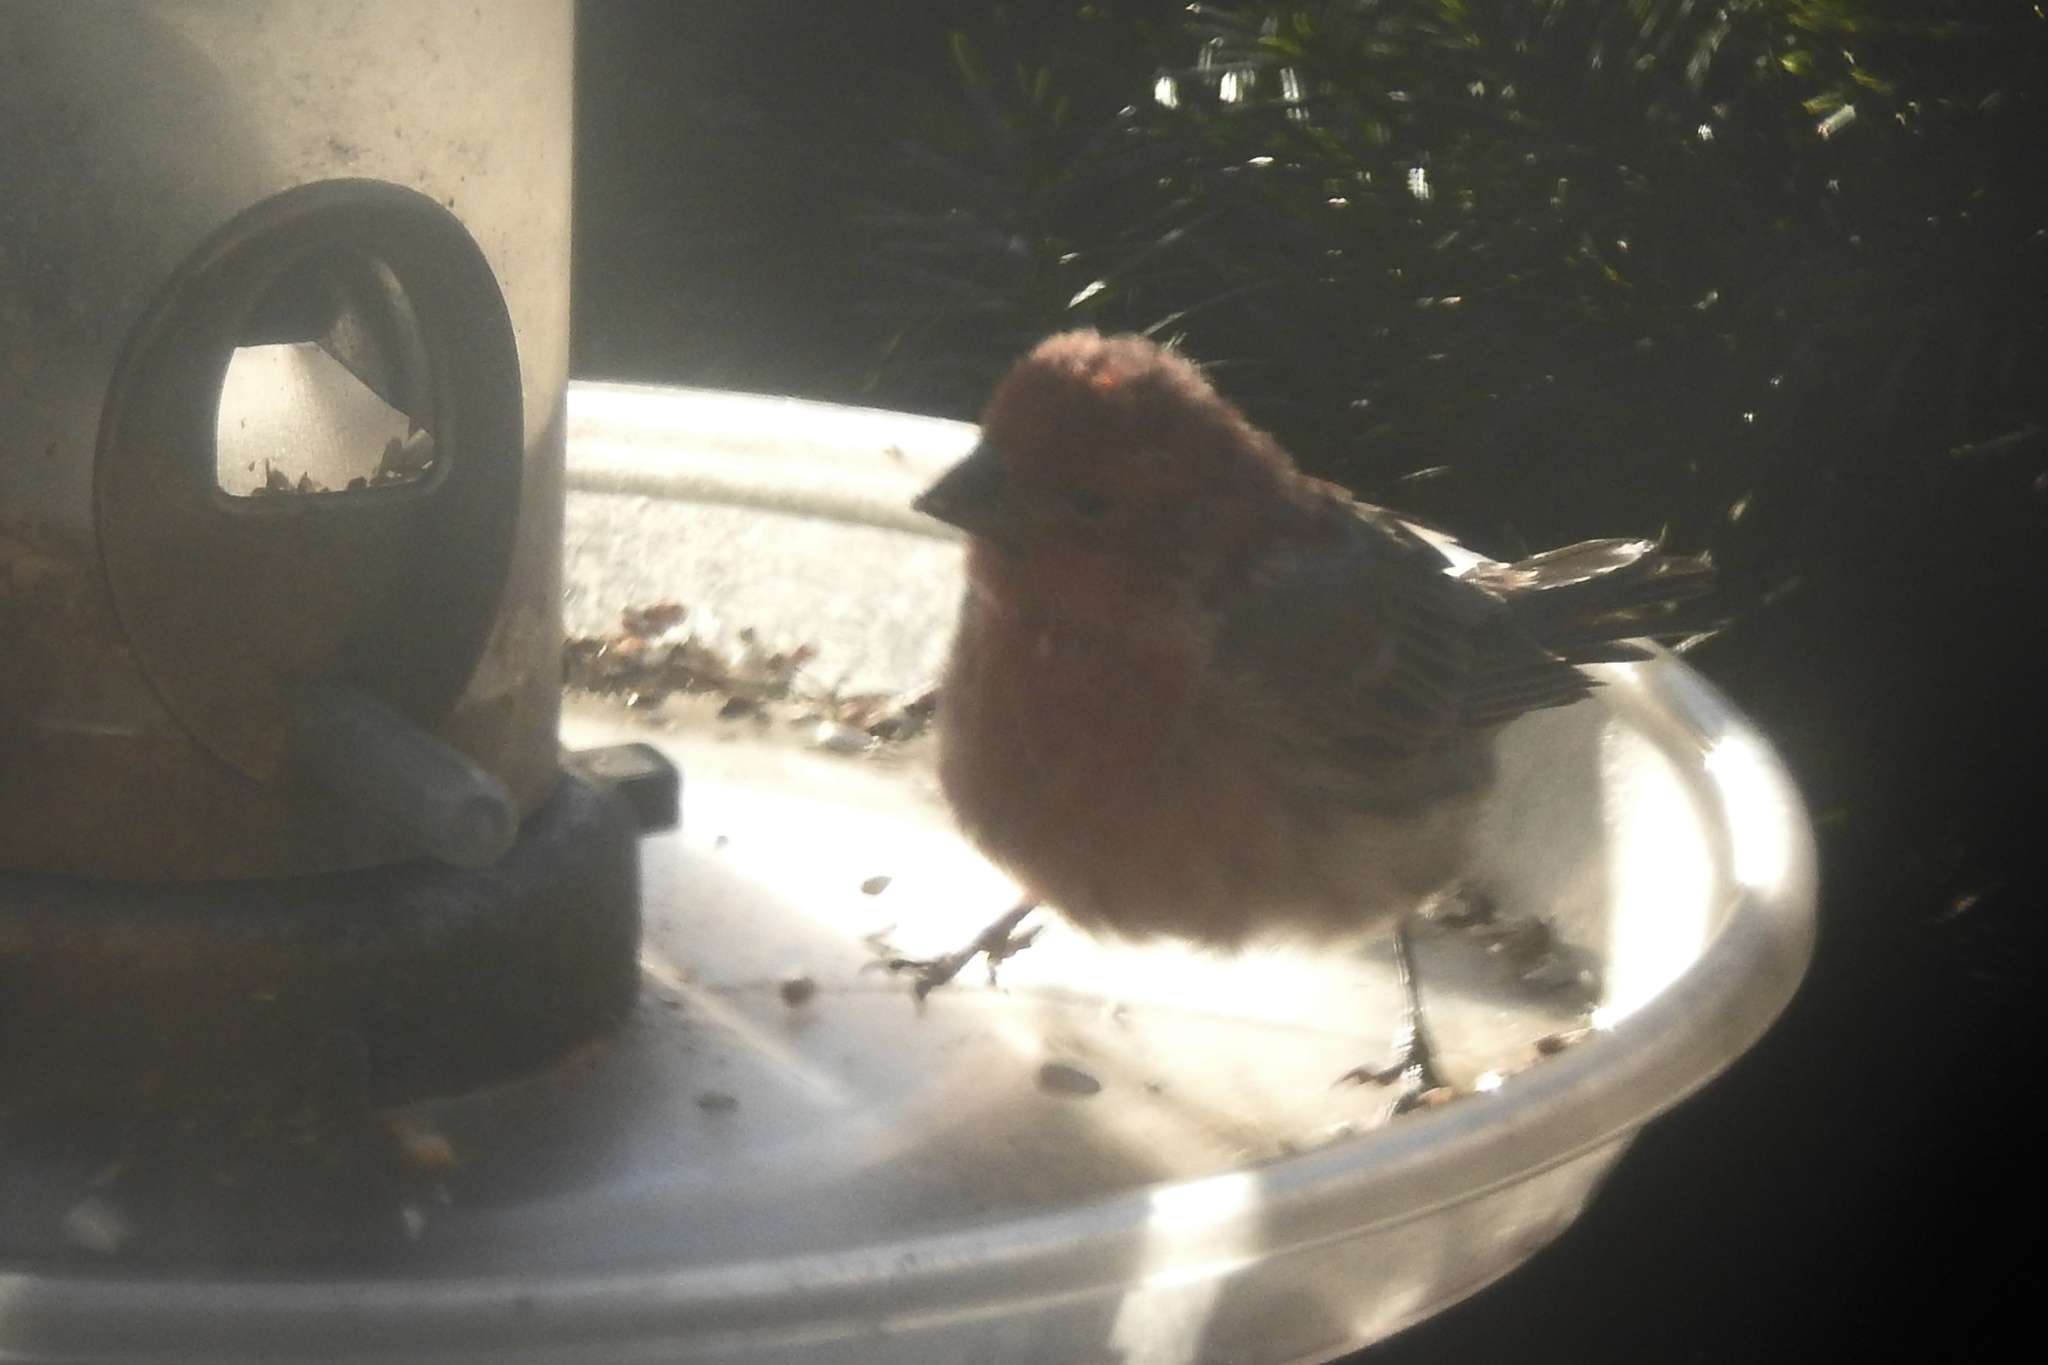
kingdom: Animalia
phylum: Chordata
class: Aves
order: Passeriformes
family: Fringillidae
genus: Haemorhous
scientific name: Haemorhous mexicanus
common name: House finch
